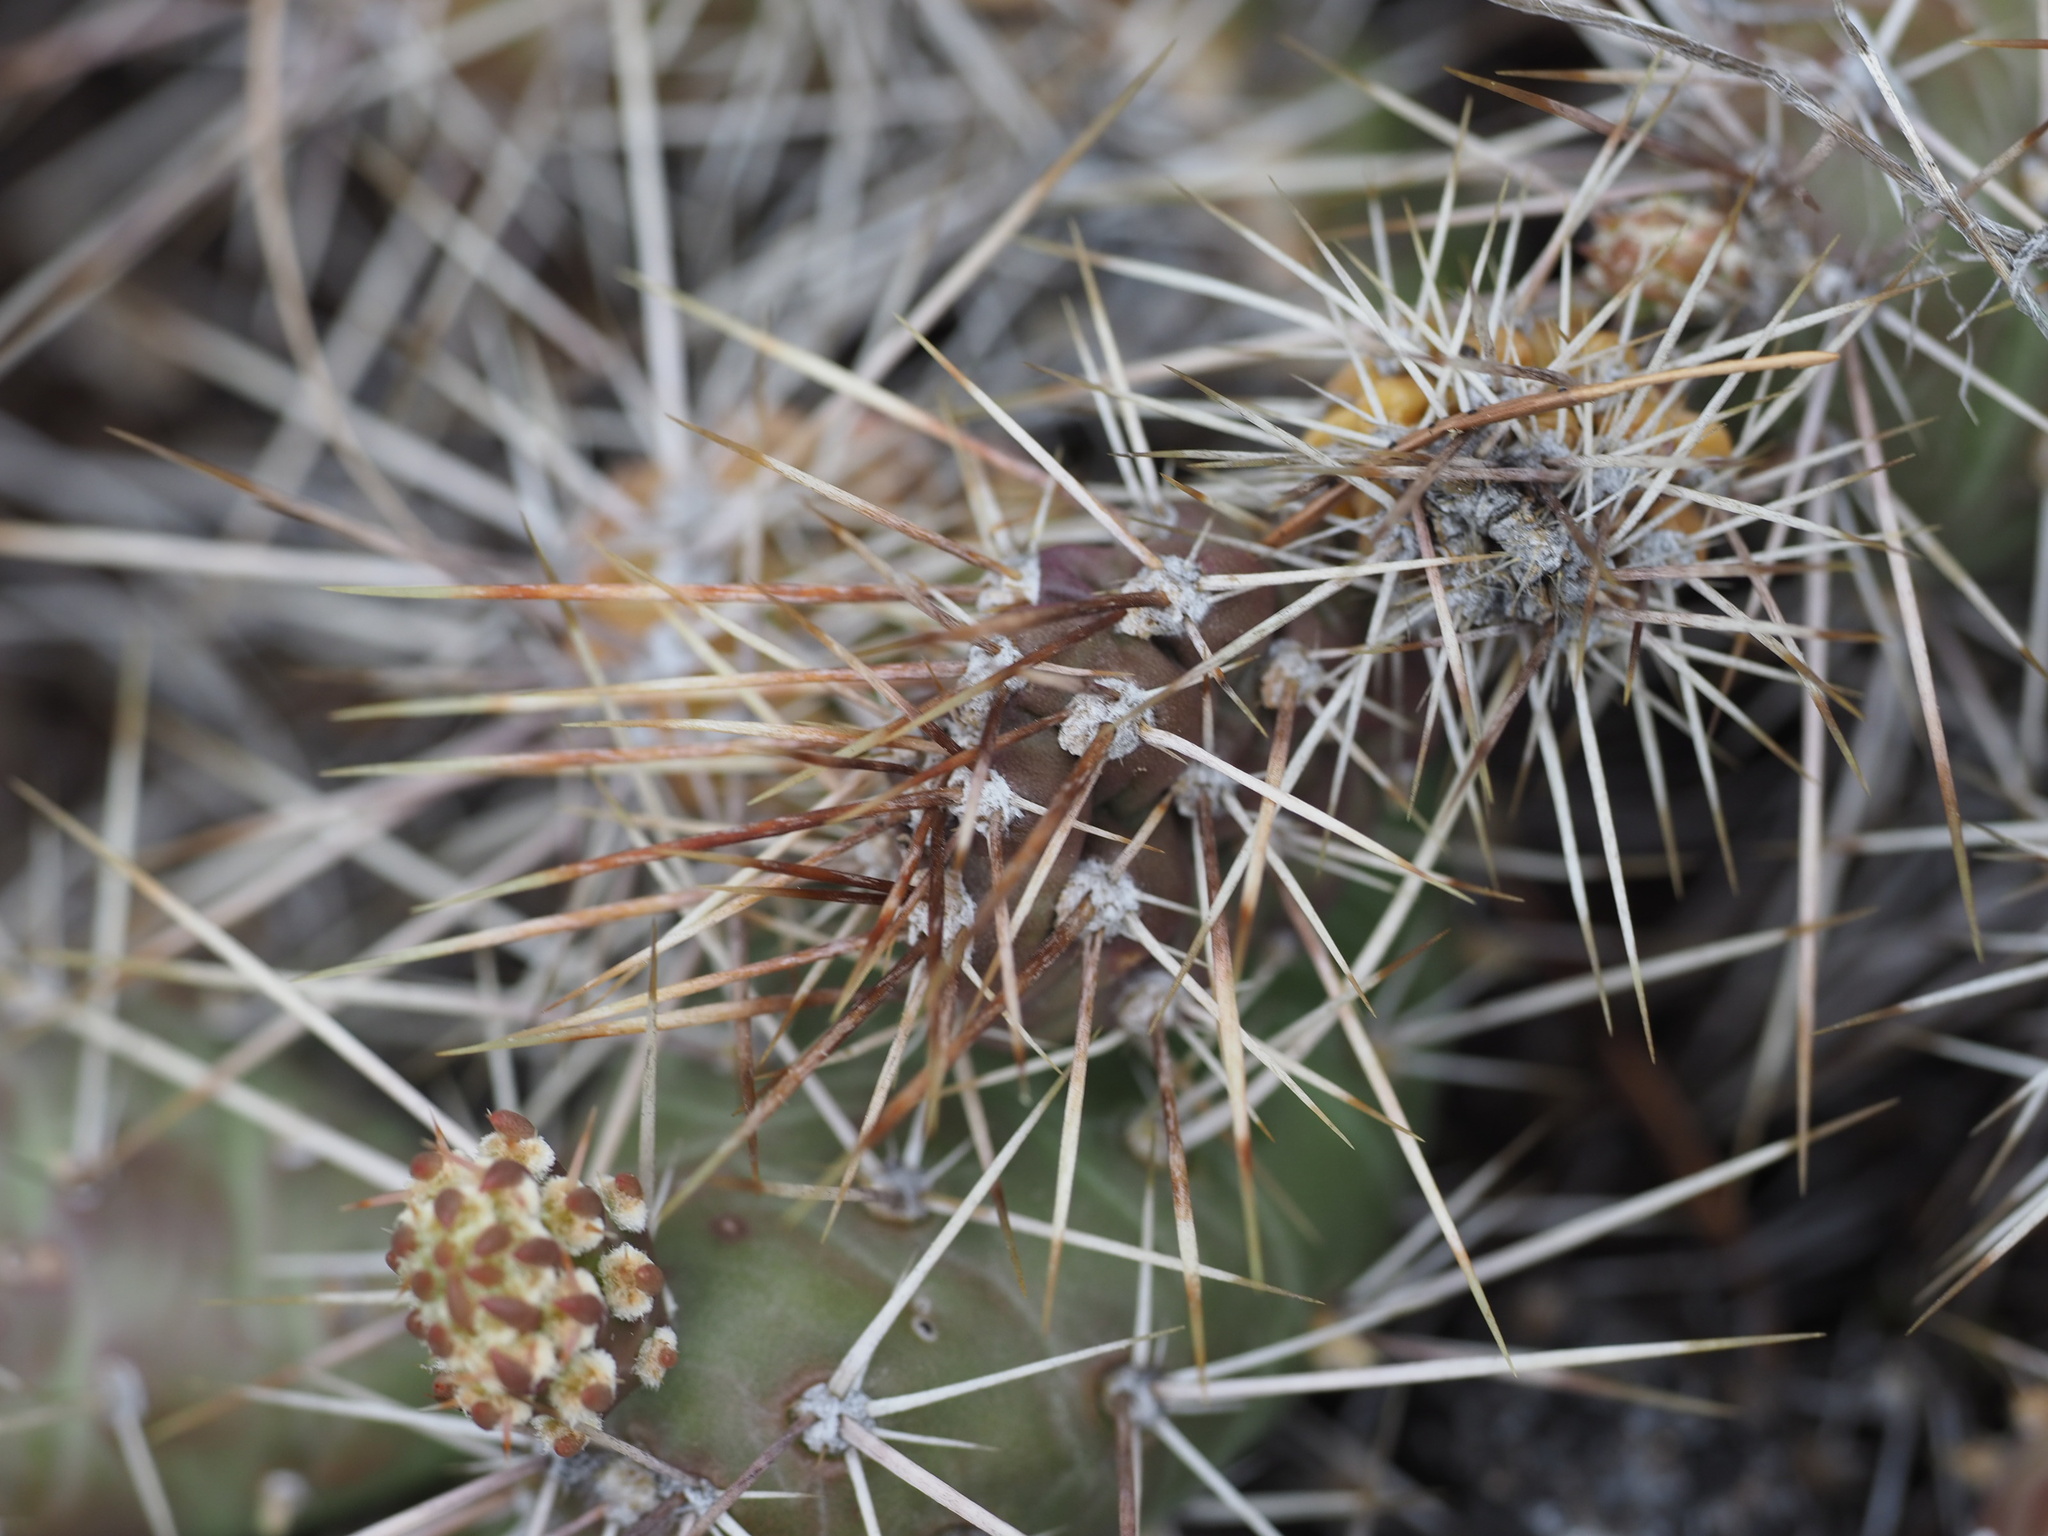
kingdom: Plantae
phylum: Tracheophyta
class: Magnoliopsida
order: Caryophyllales
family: Cactaceae
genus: Opuntia
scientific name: Opuntia fragilis
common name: Brittle cactus
